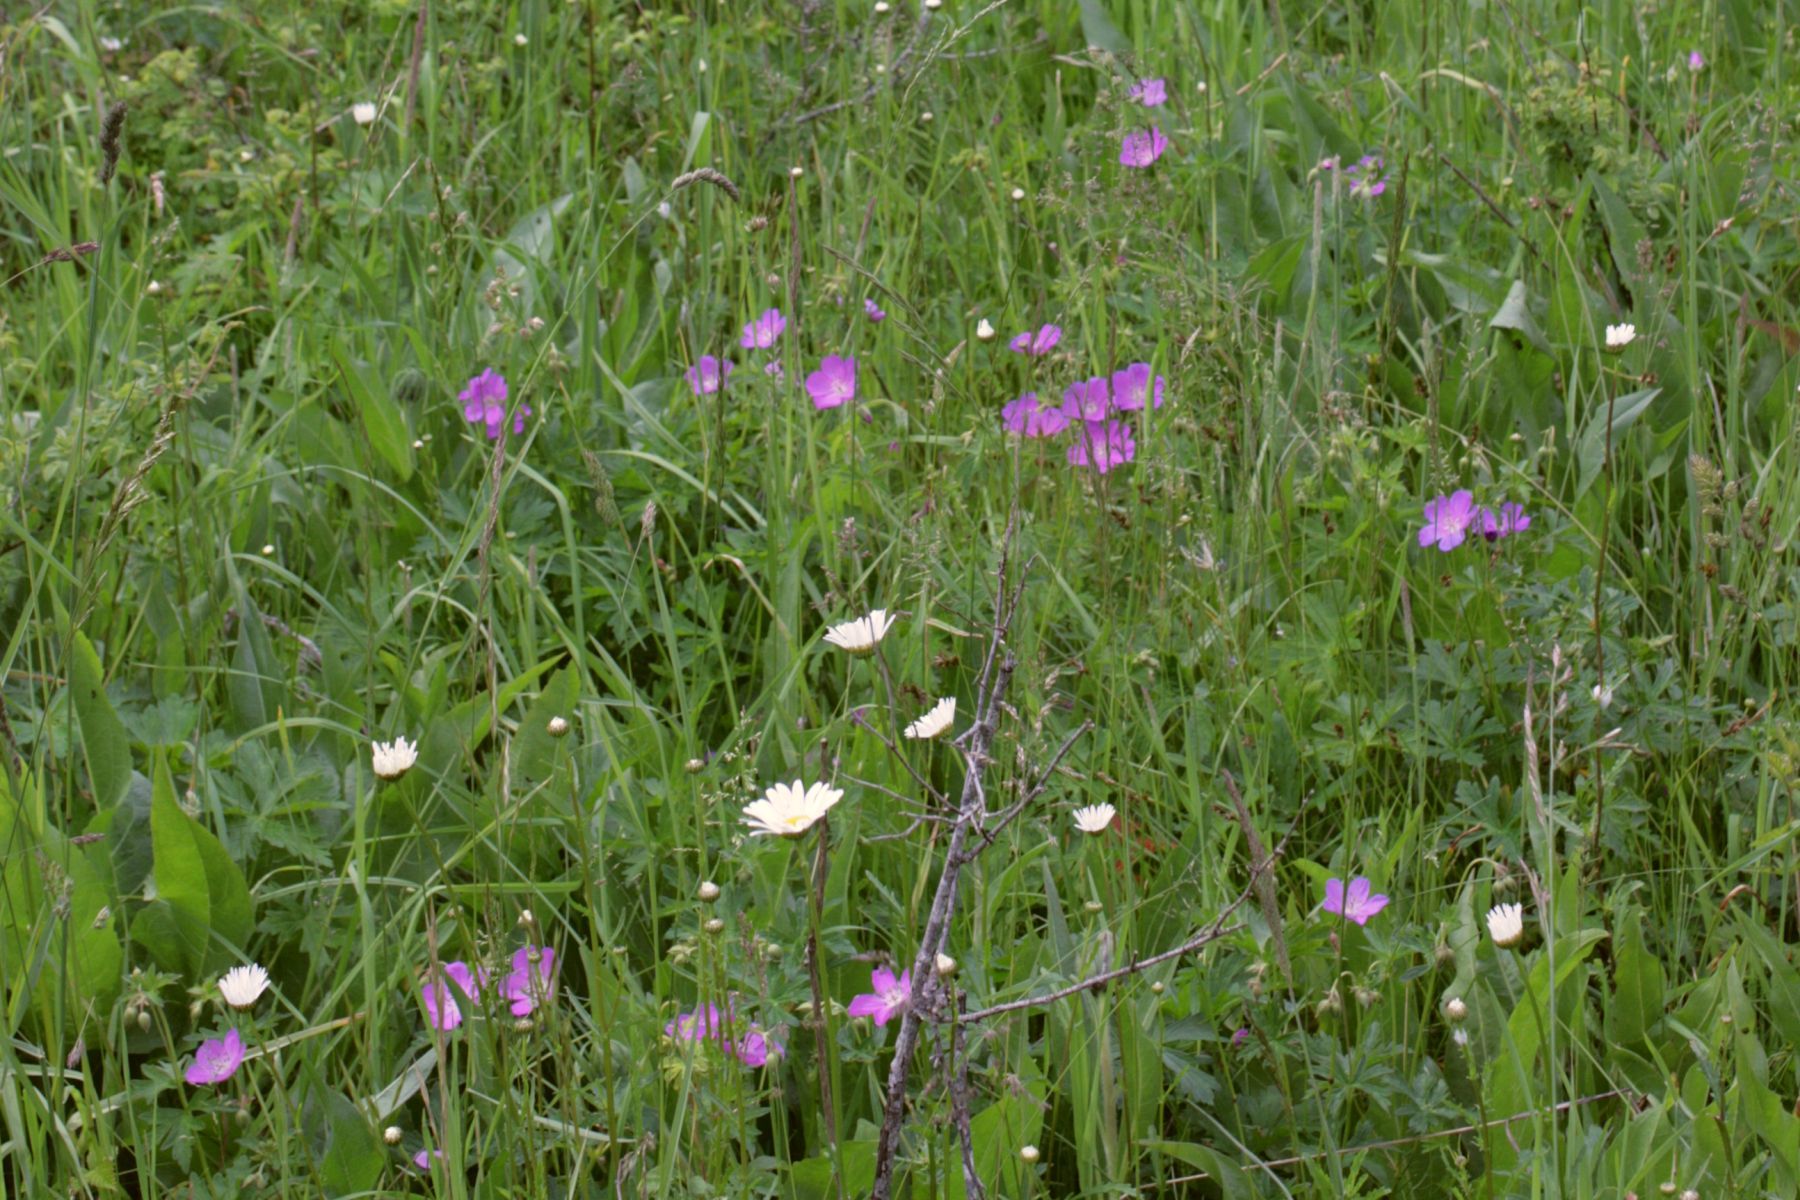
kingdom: Plantae
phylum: Tracheophyta
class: Magnoliopsida
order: Geraniales
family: Geraniaceae
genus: Geranium
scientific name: Geranium oreganum
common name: Oregon crane's-bill
